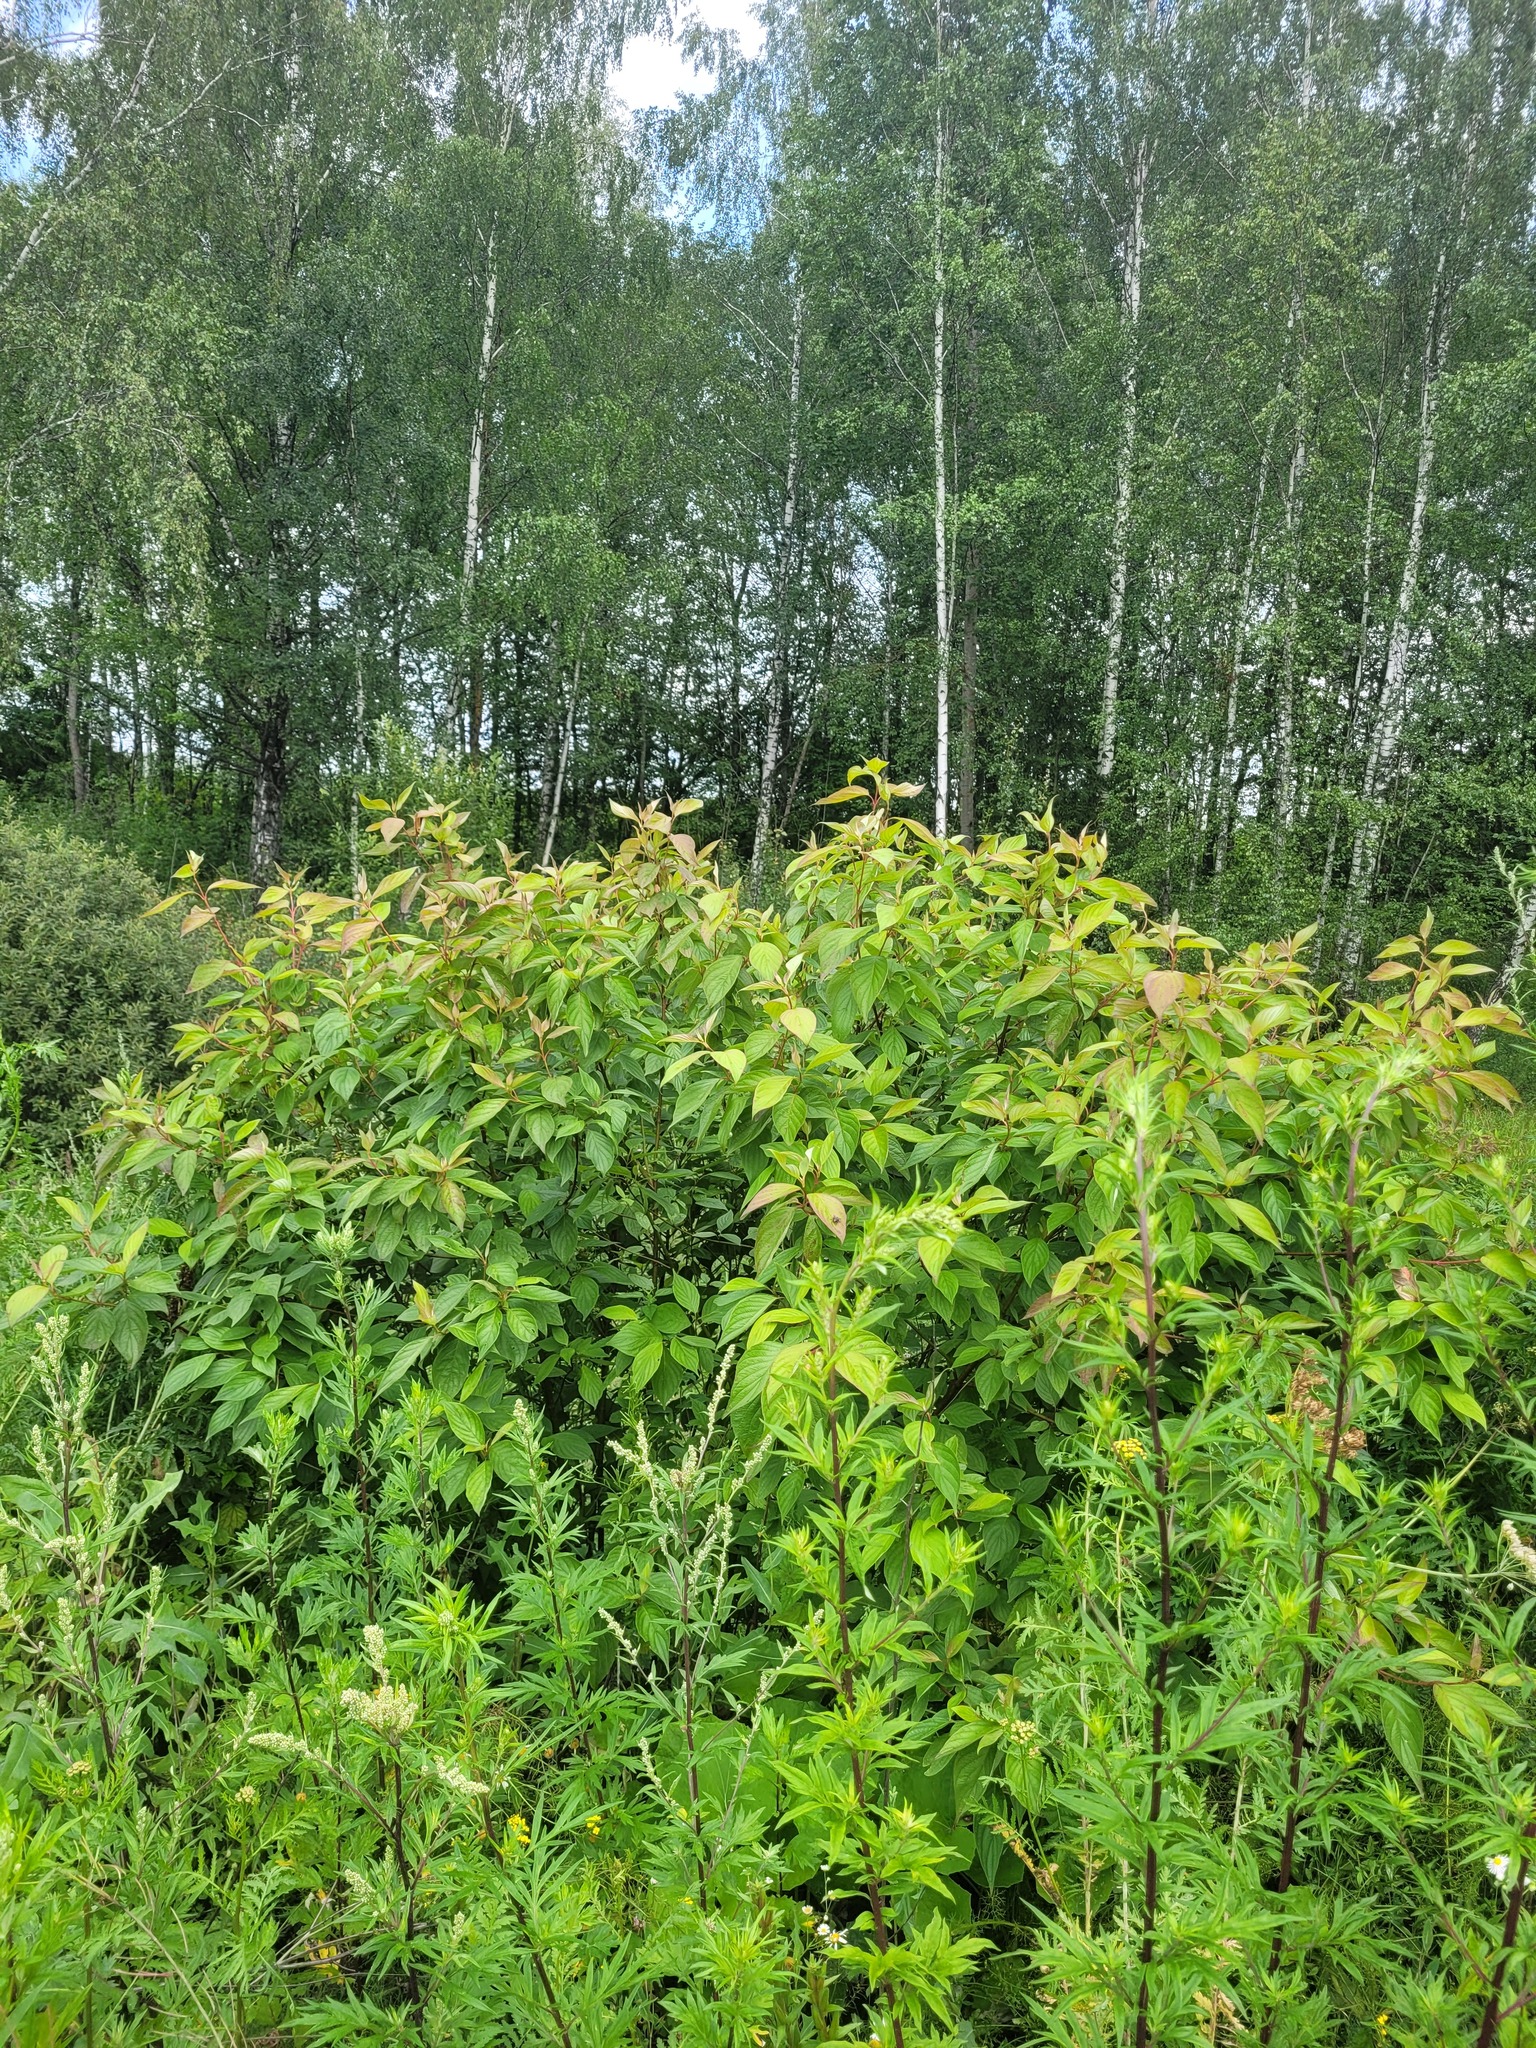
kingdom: Plantae
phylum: Tracheophyta
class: Magnoliopsida
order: Cornales
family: Cornaceae
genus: Cornus
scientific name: Cornus alba
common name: White dogwood
